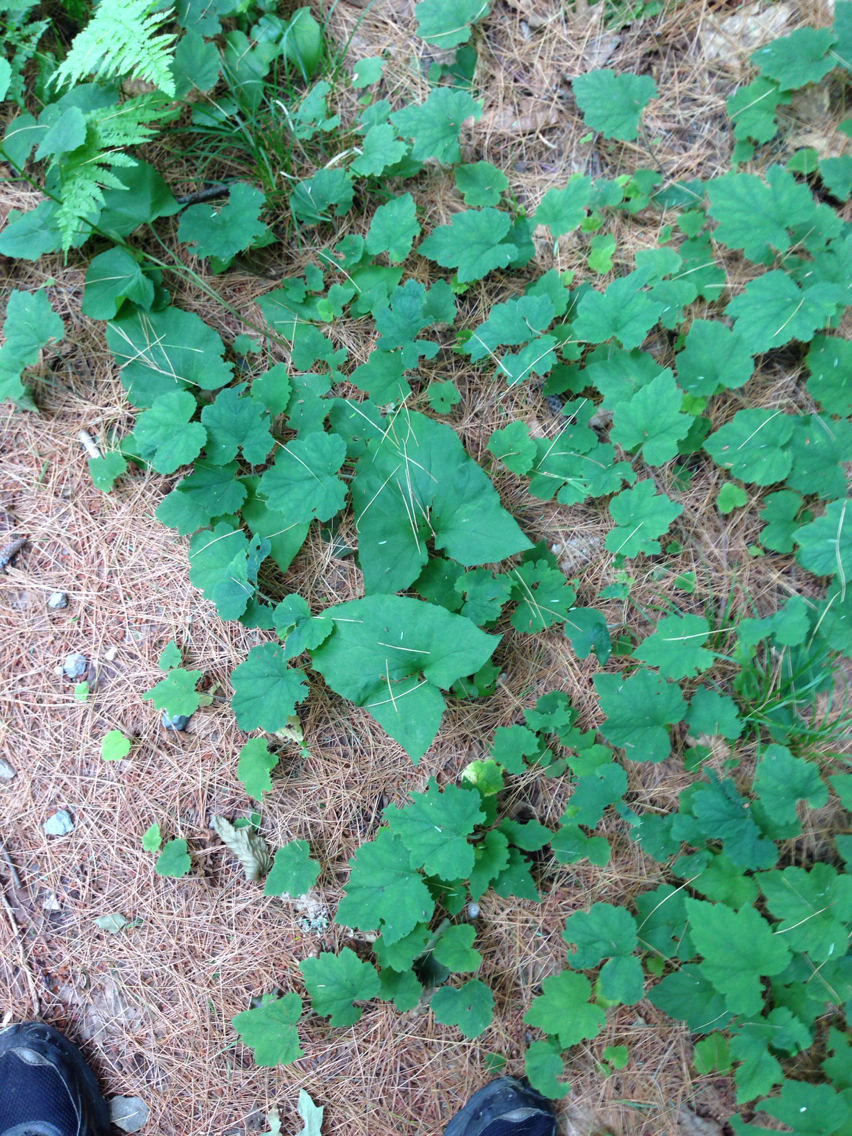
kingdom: Plantae
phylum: Tracheophyta
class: Magnoliopsida
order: Saxifragales
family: Saxifragaceae
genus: Tiarella
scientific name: Tiarella stolonifera
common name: Stoloniferous foamflower
